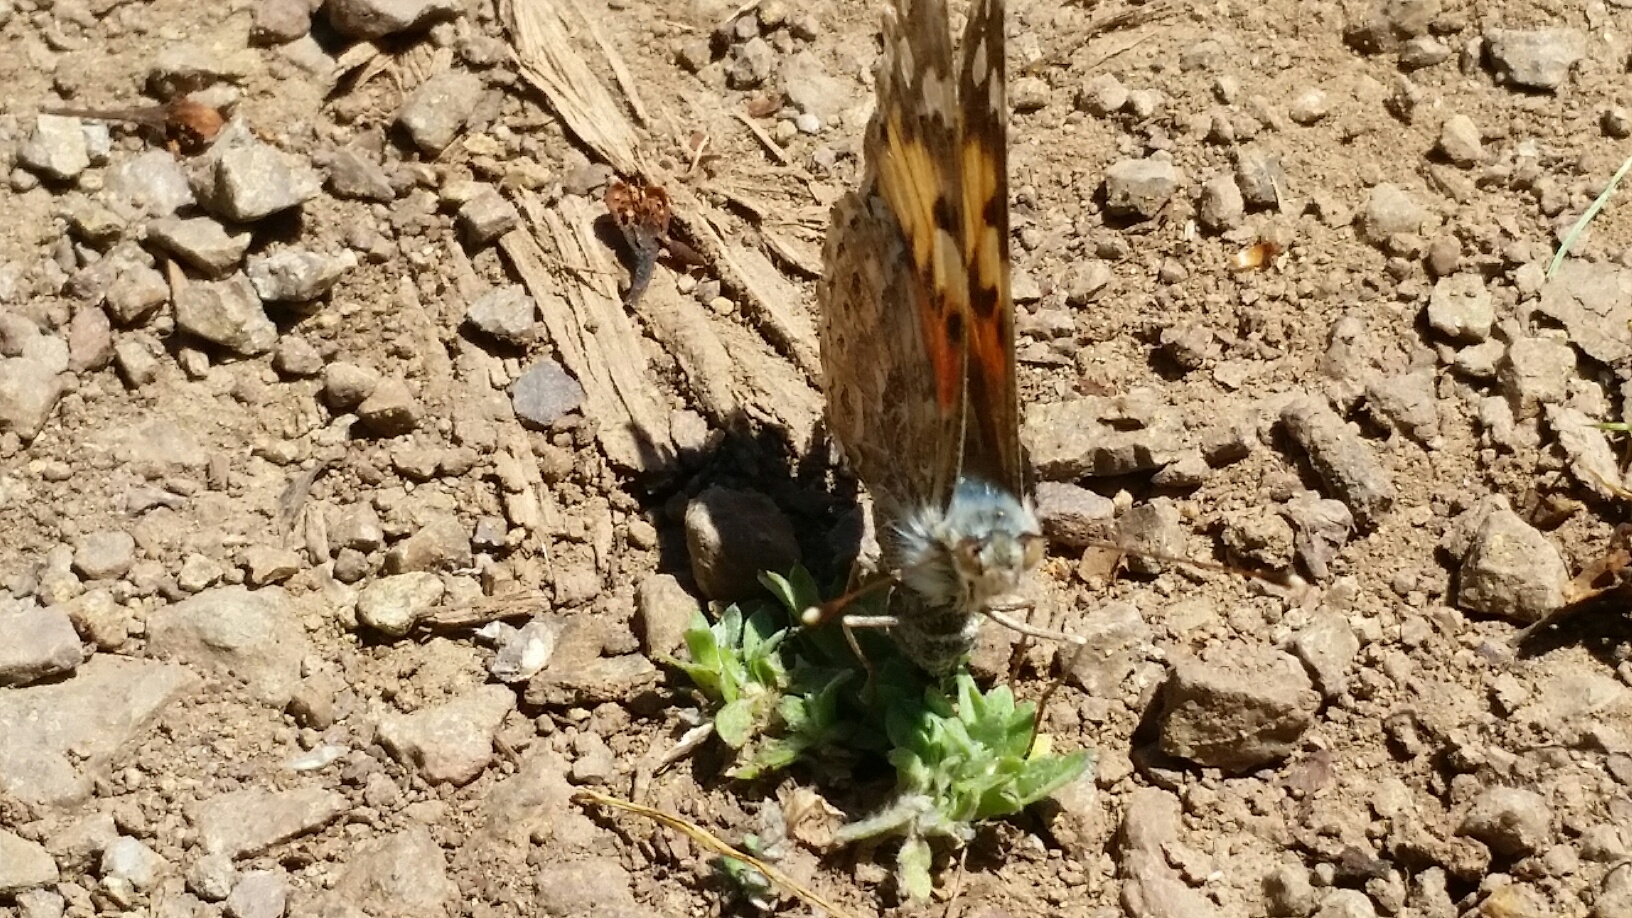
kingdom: Animalia
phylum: Arthropoda
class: Insecta
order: Lepidoptera
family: Nymphalidae
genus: Vanessa
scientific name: Vanessa cardui
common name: Painted lady
